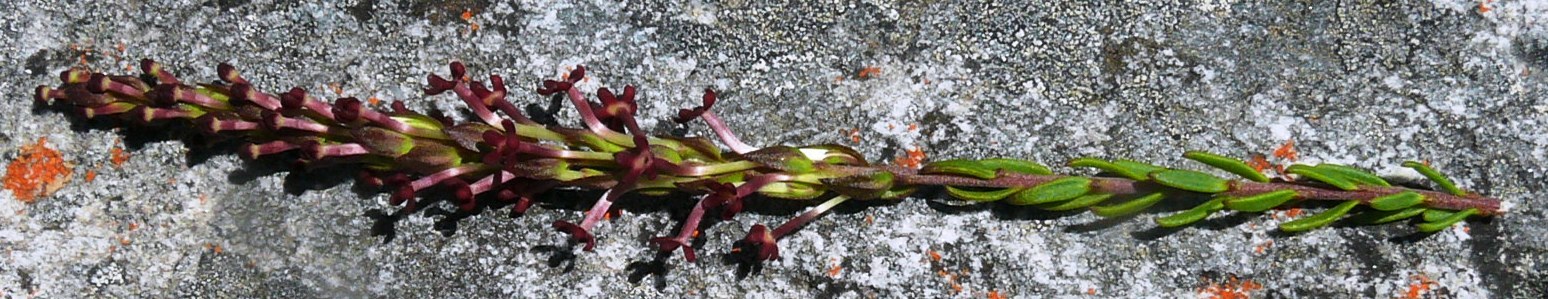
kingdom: Plantae
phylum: Tracheophyta
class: Magnoliopsida
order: Lamiales
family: Scrophulariaceae
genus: Microdon
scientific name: Microdon dubius
